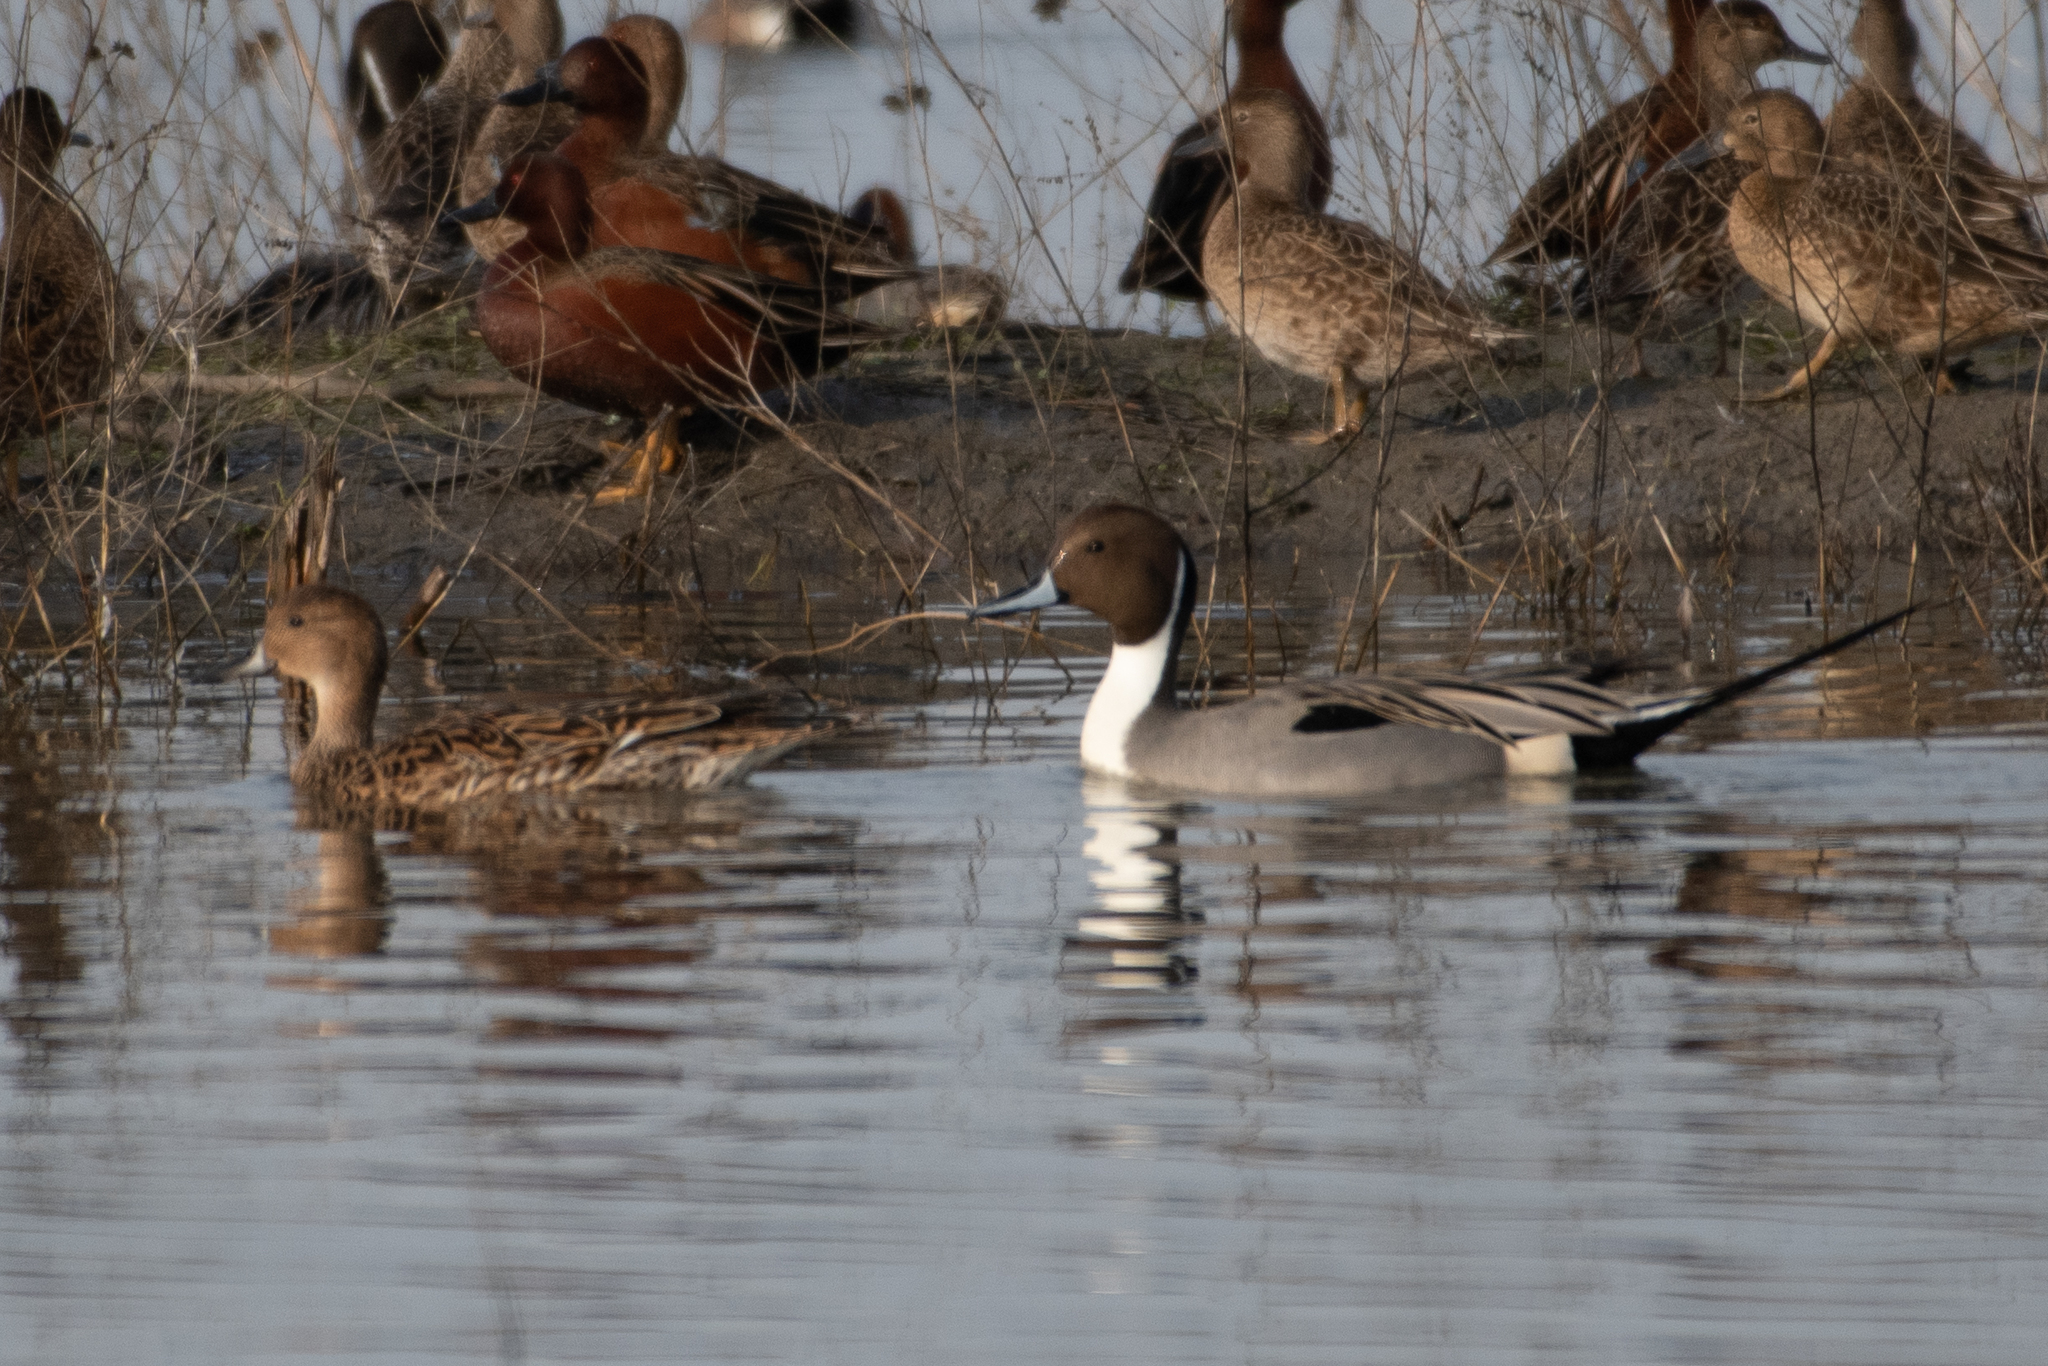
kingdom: Animalia
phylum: Chordata
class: Aves
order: Anseriformes
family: Anatidae
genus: Anas
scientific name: Anas acuta
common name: Northern pintail
